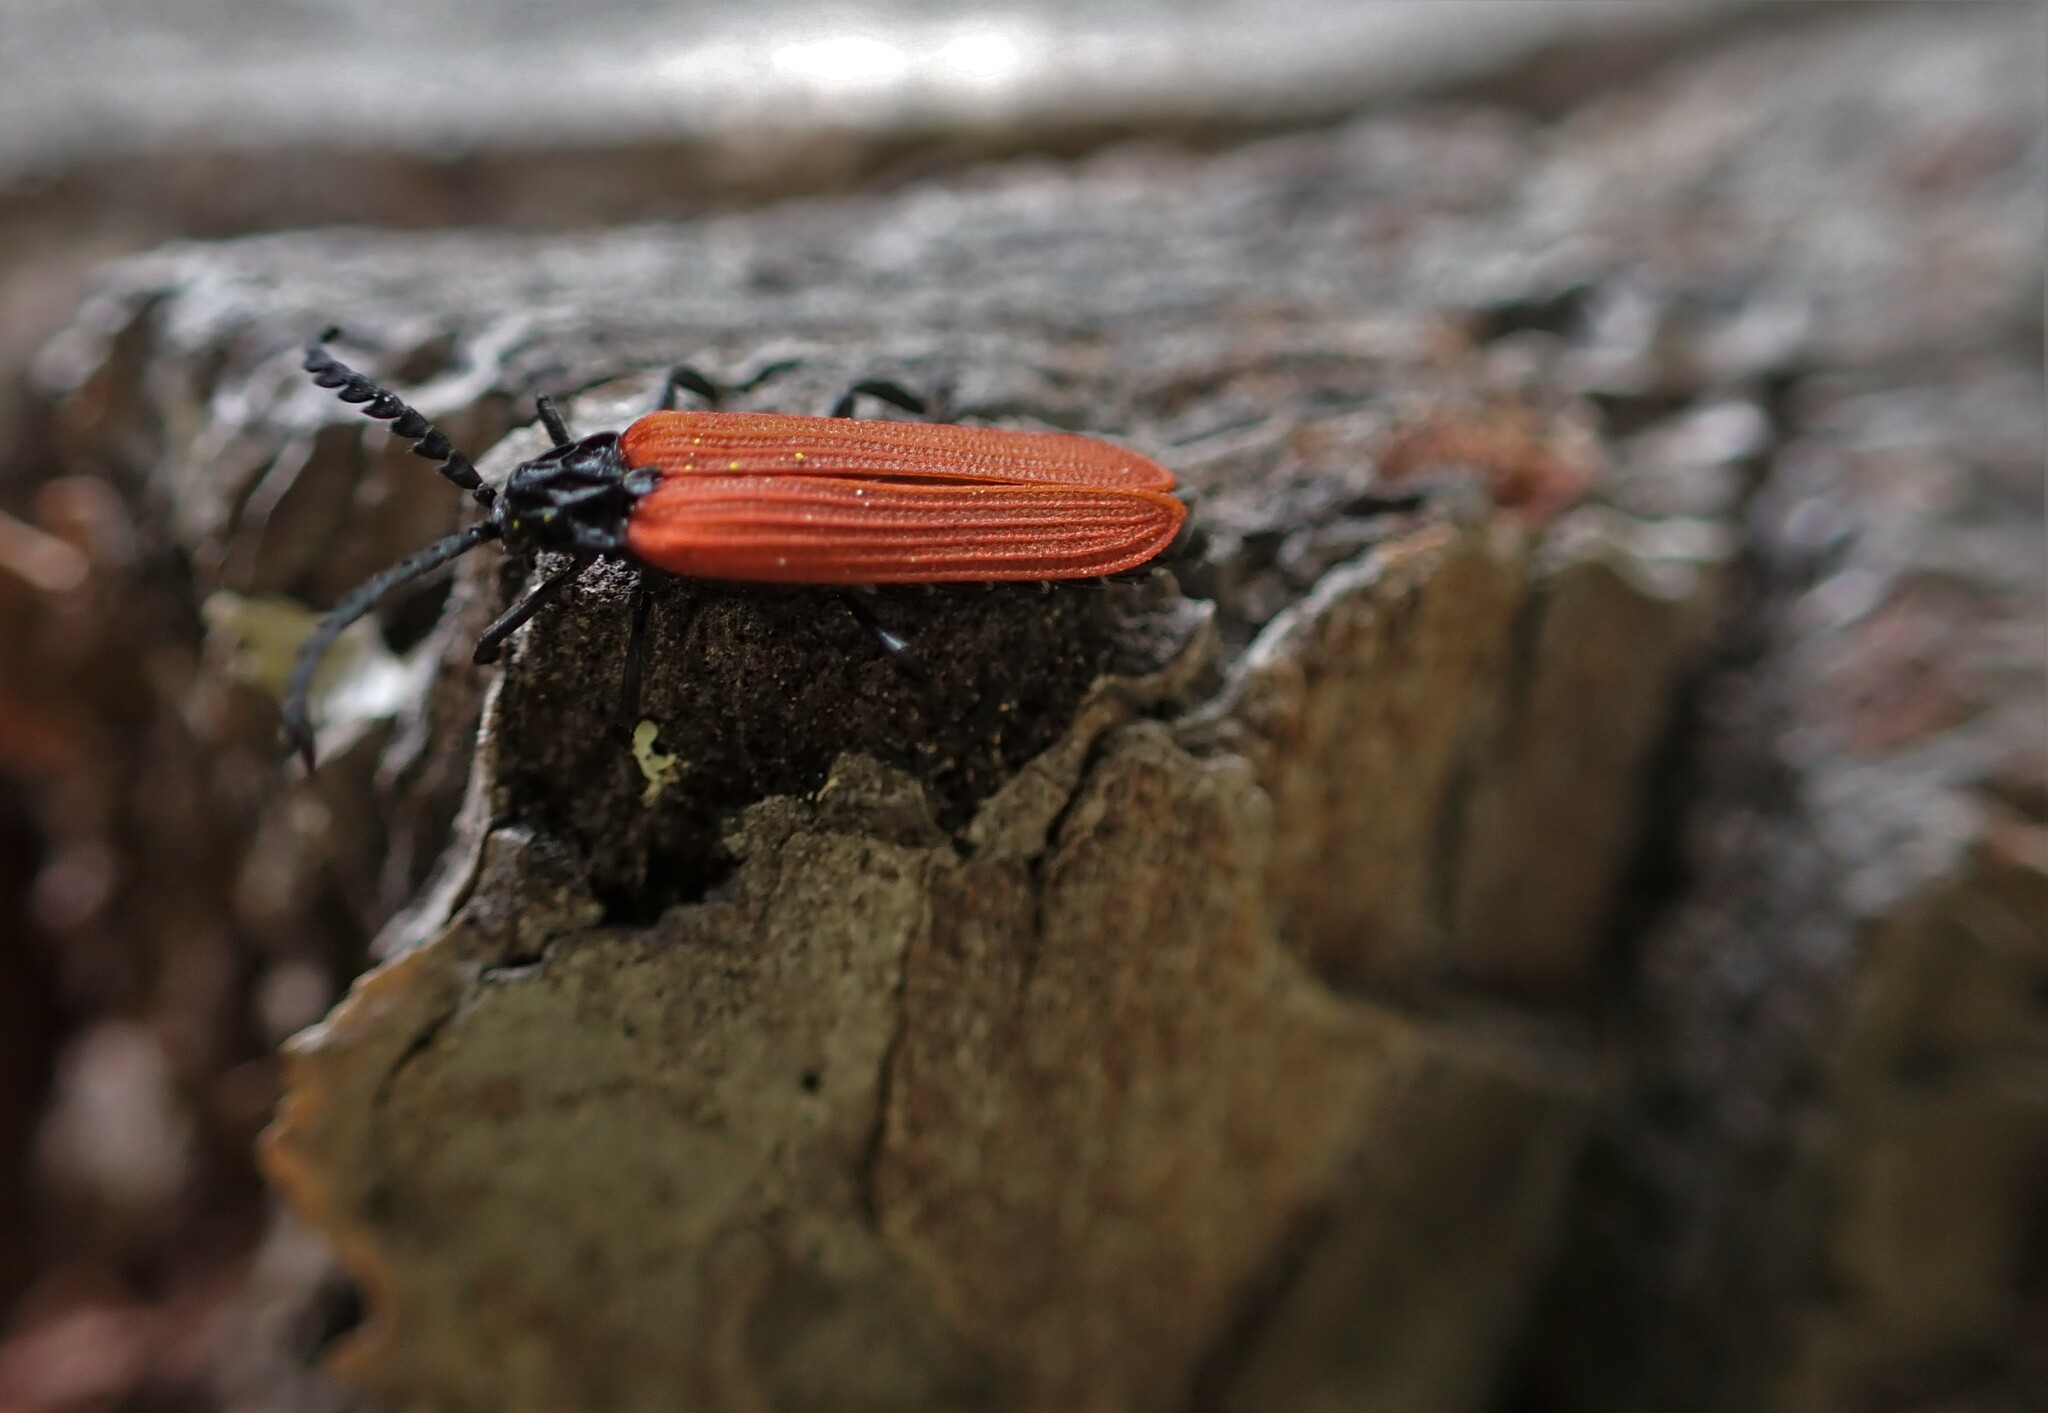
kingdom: Animalia
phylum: Arthropoda
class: Insecta
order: Coleoptera
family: Lycidae
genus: Porrostoma
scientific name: Porrostoma rufipenne
